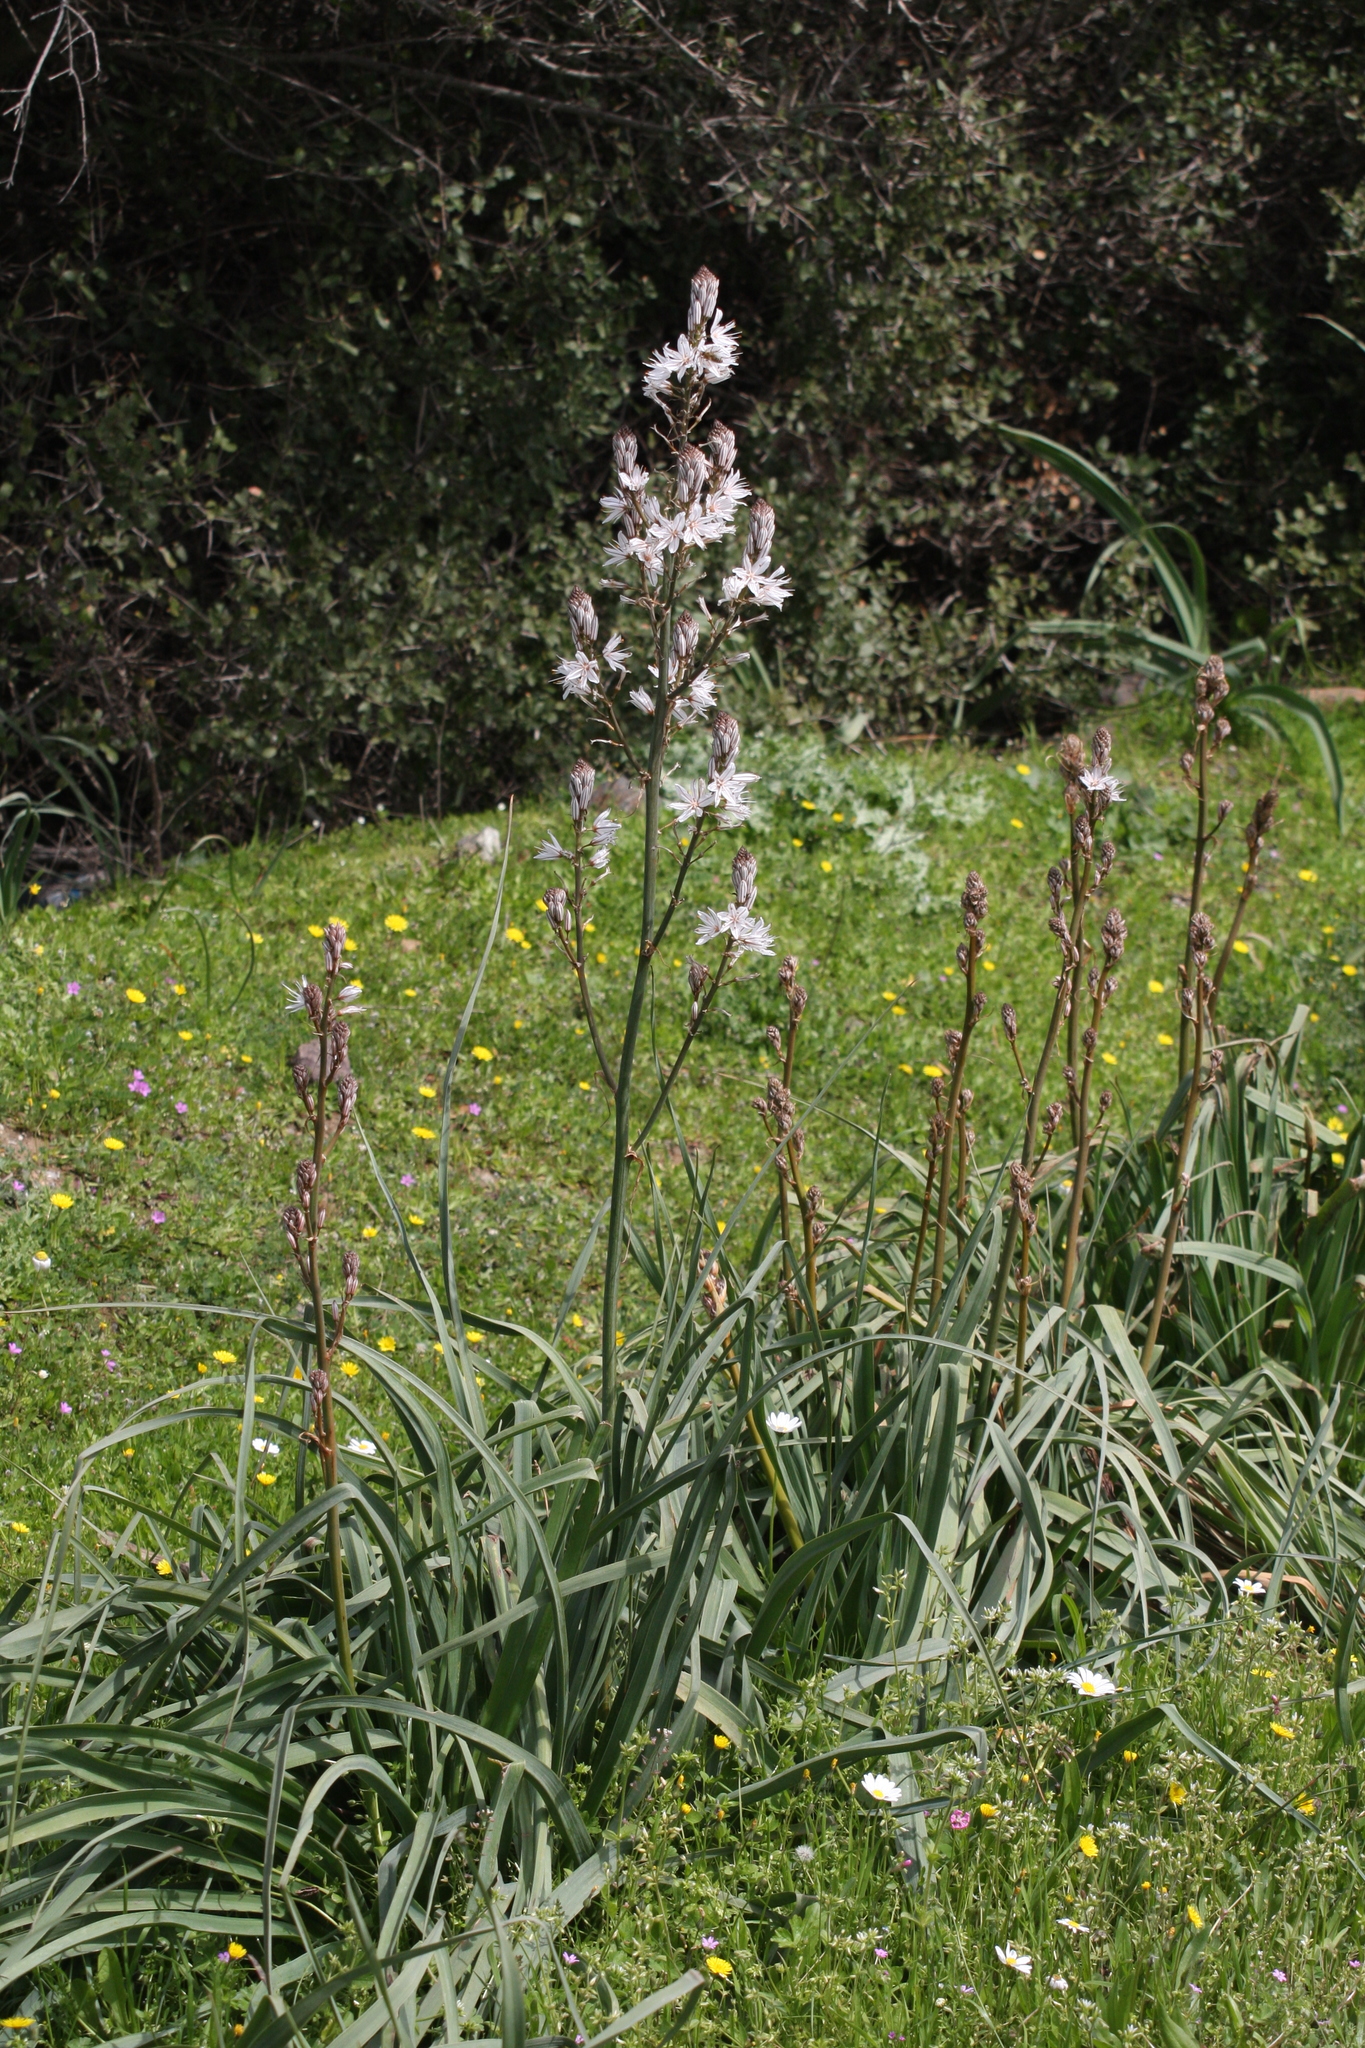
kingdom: Plantae
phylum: Tracheophyta
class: Liliopsida
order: Asparagales
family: Asphodelaceae
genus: Asphodelus
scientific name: Asphodelus ramosus
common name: Silverrod
